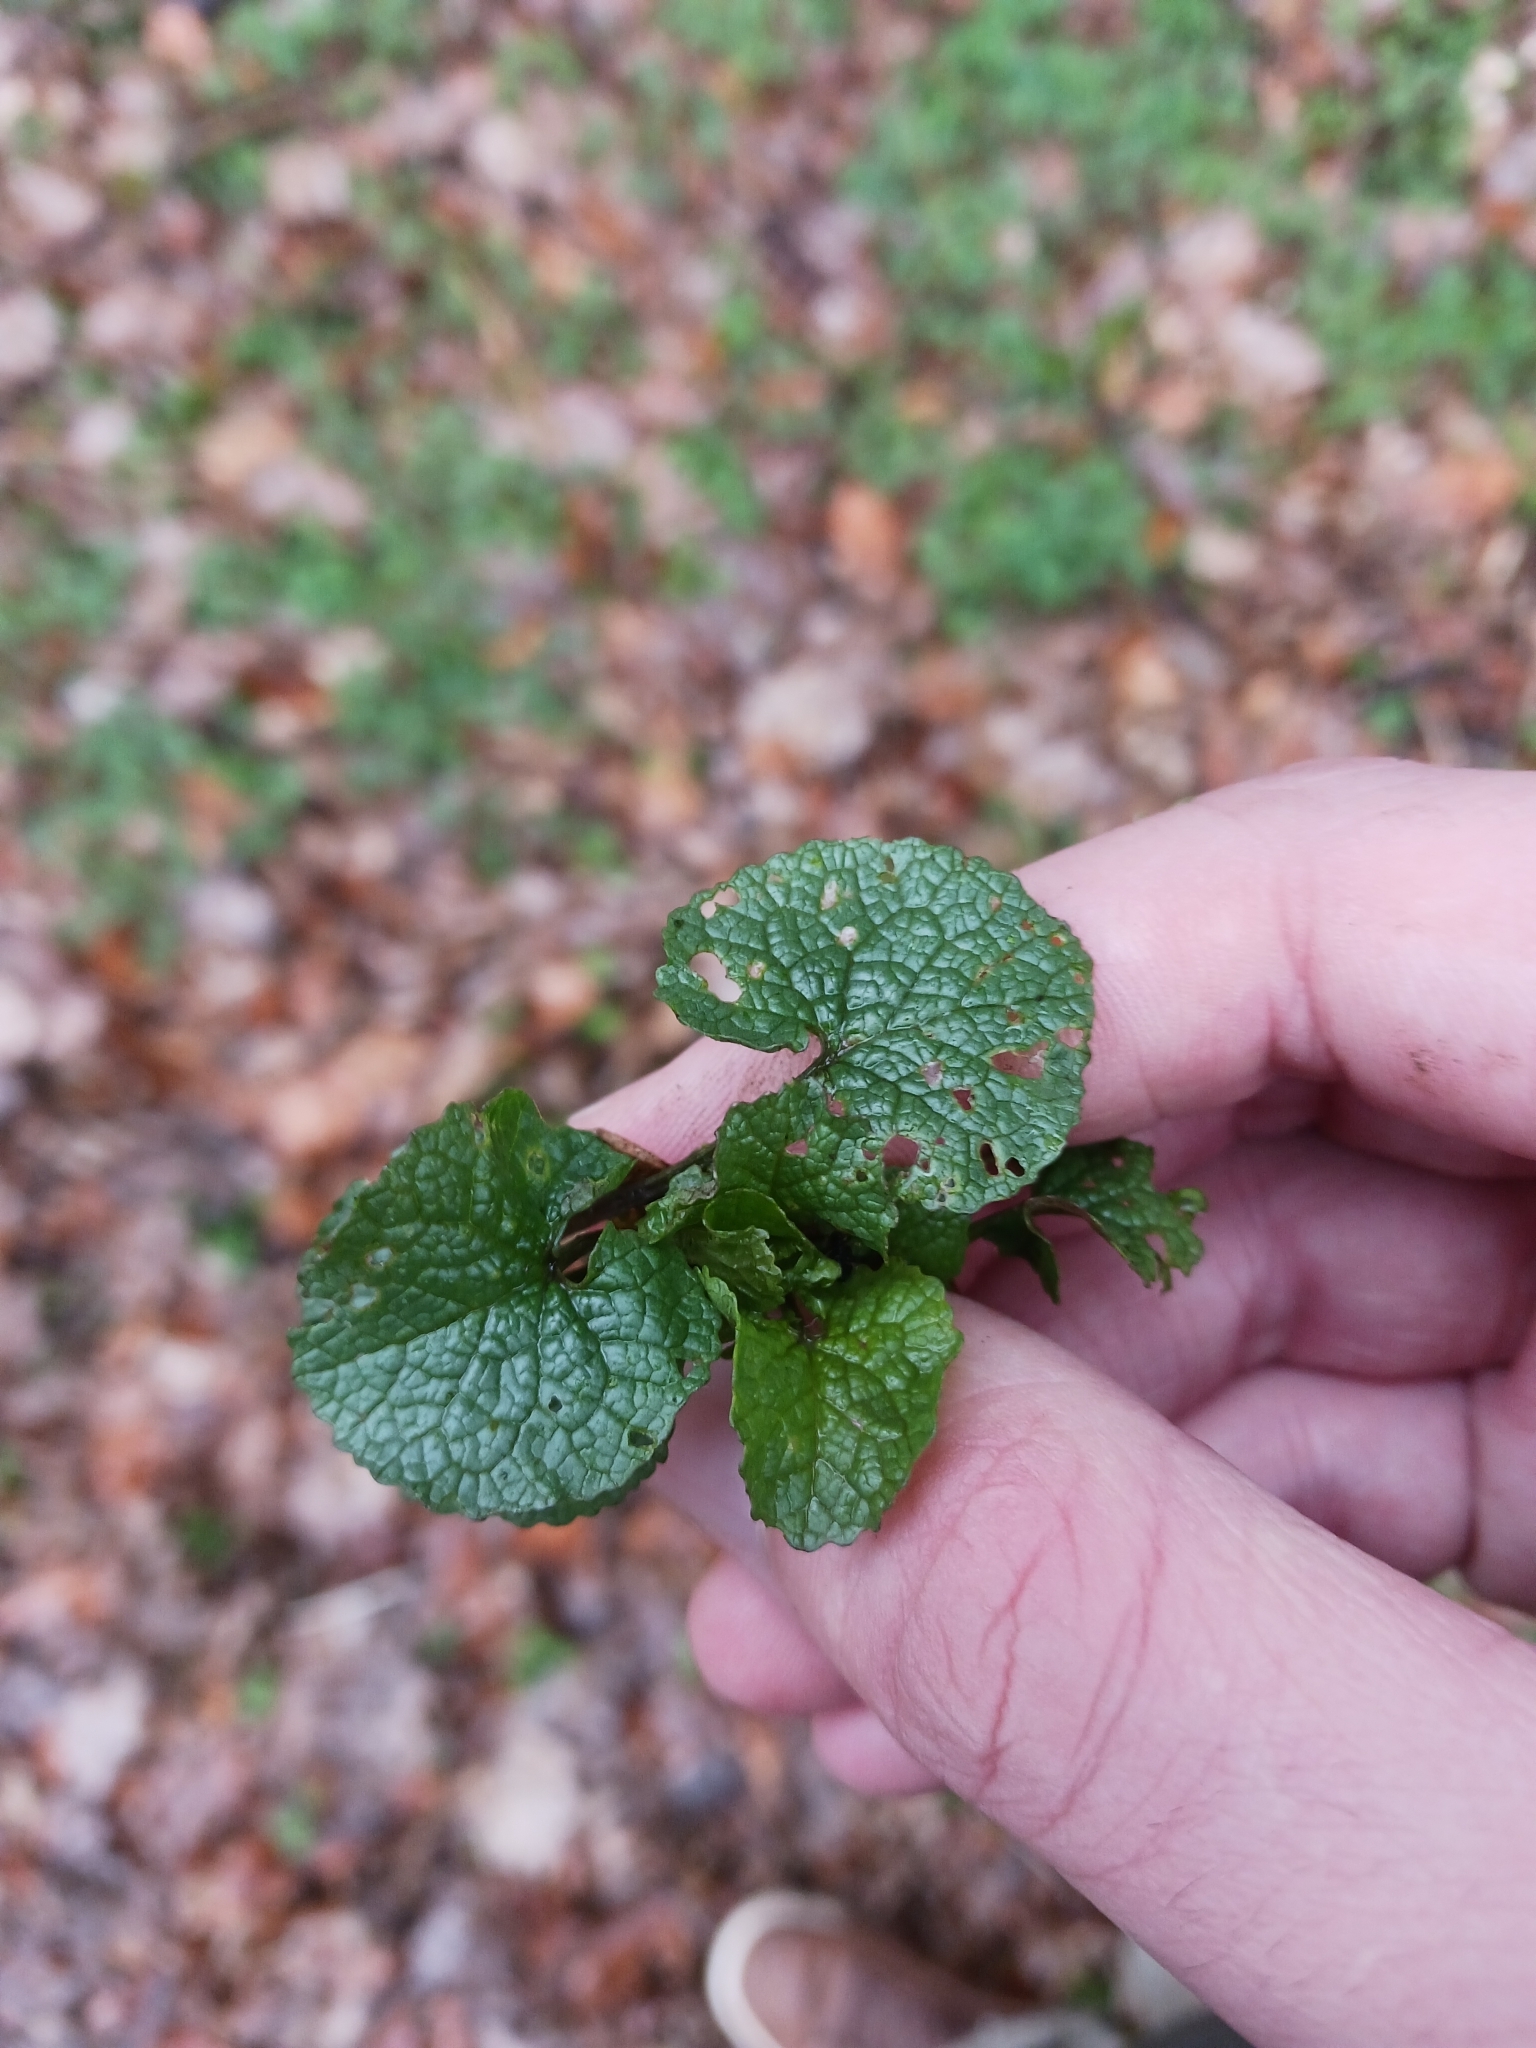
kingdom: Plantae
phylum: Tracheophyta
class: Magnoliopsida
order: Brassicales
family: Brassicaceae
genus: Alliaria
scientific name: Alliaria petiolata
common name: Garlic mustard
